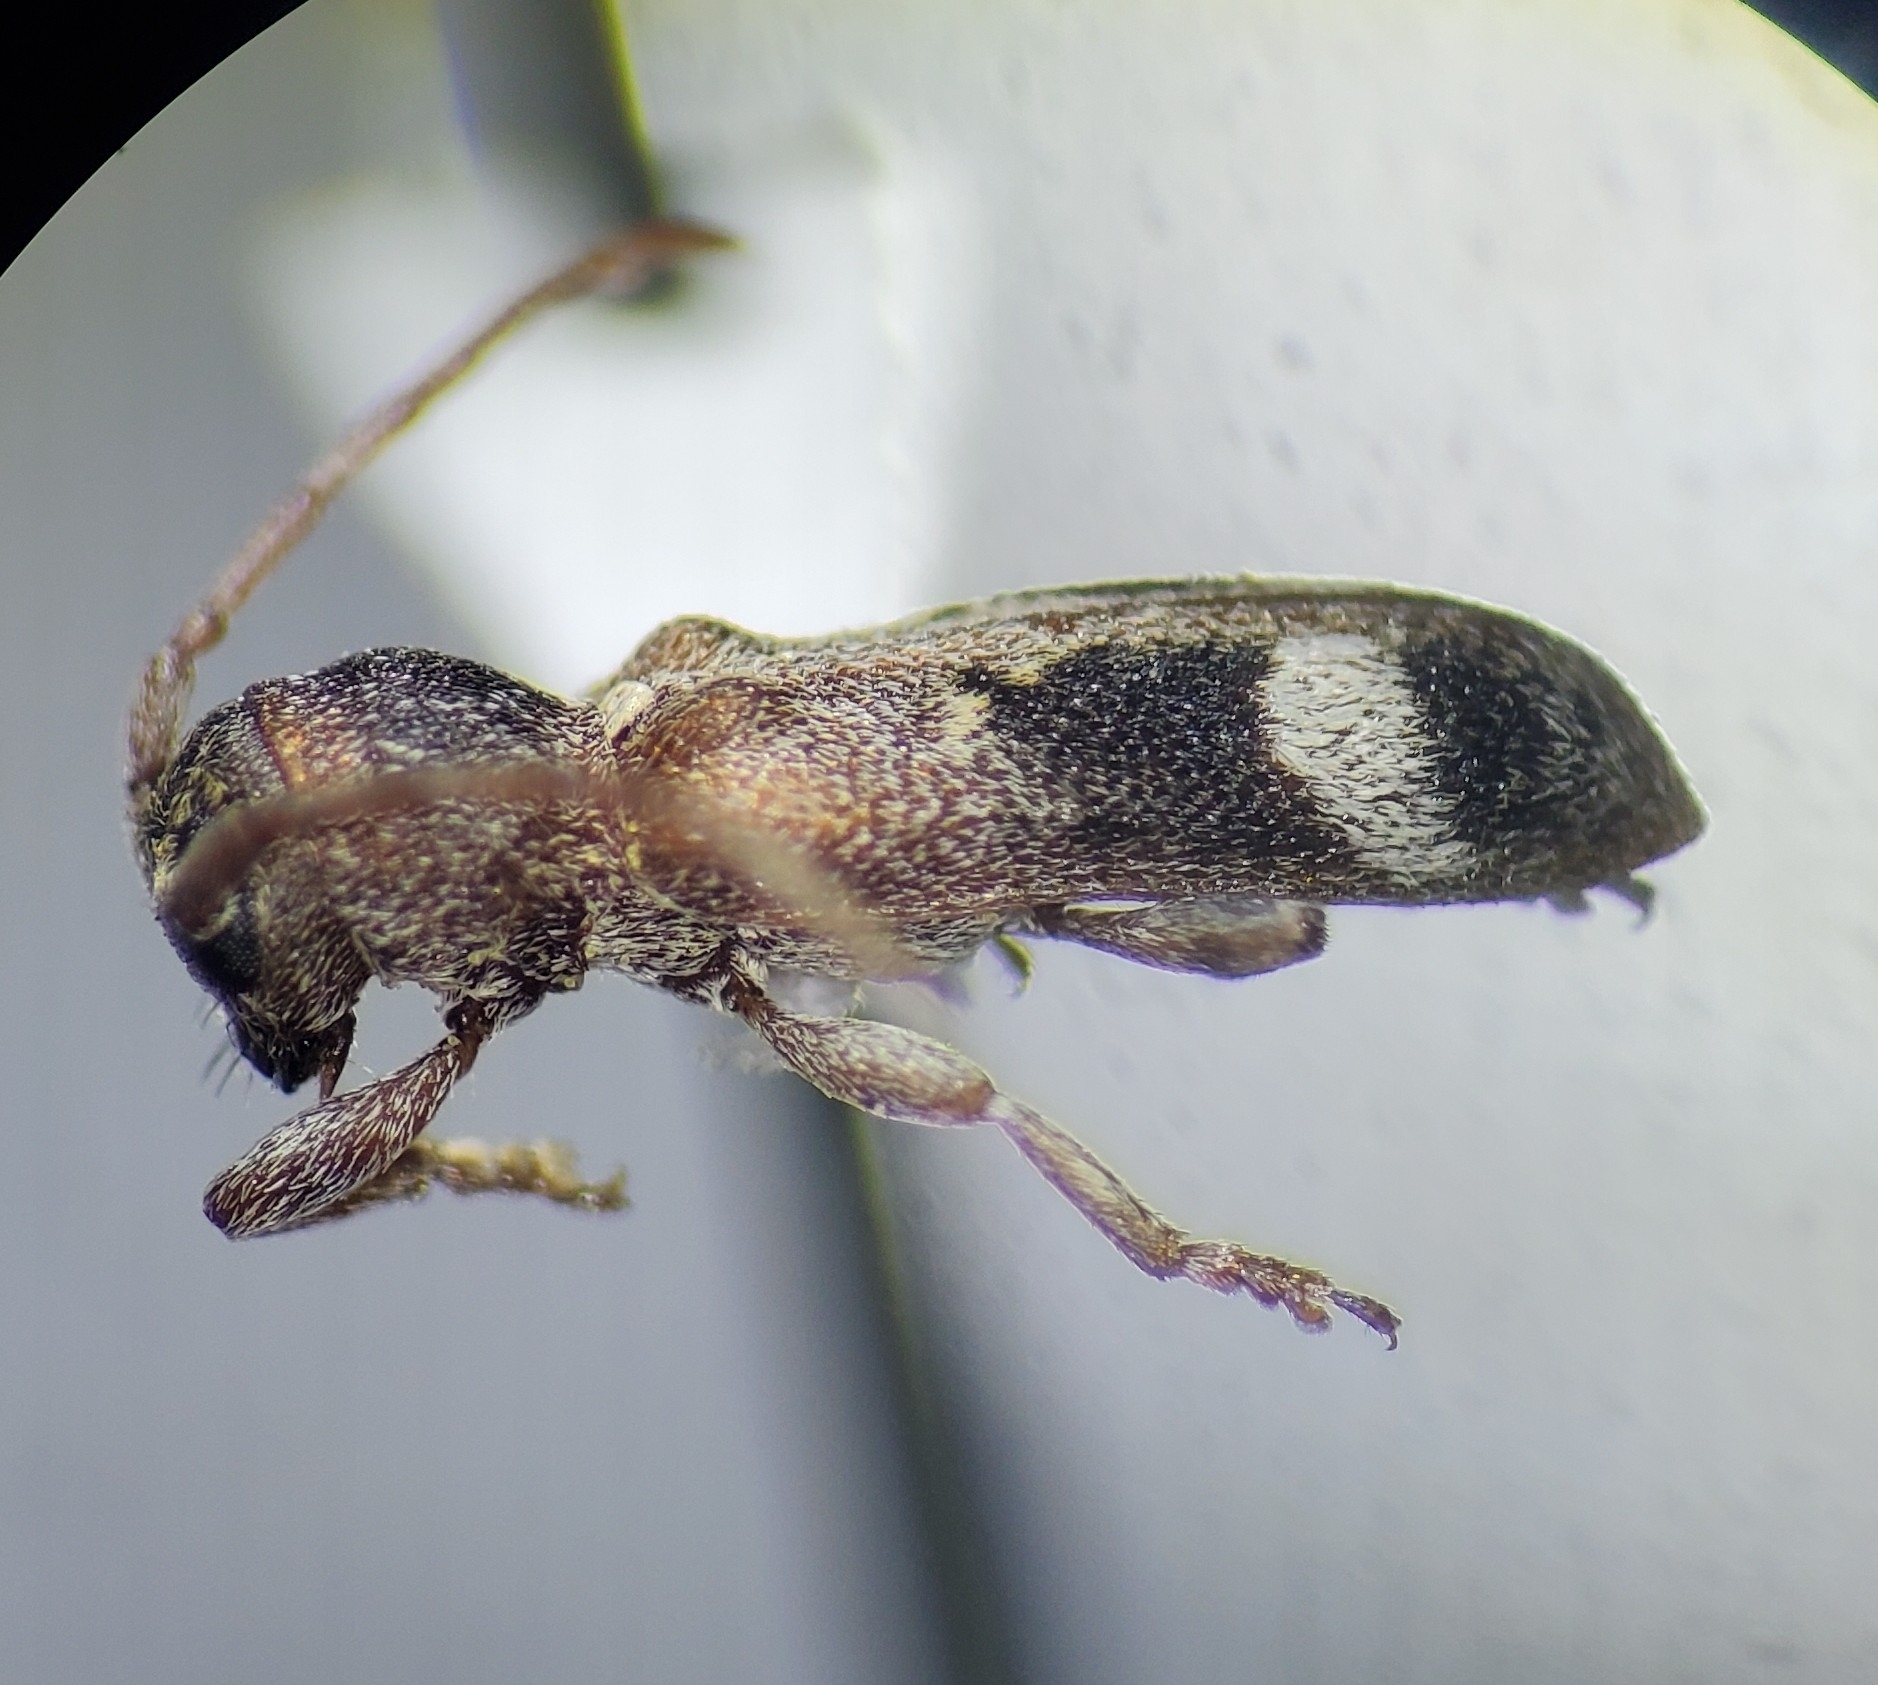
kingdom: Animalia
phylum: Arthropoda
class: Insecta
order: Coleoptera
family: Cerambycidae
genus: Psenocerus
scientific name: Psenocerus supernotatus
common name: Currant-tip borer
